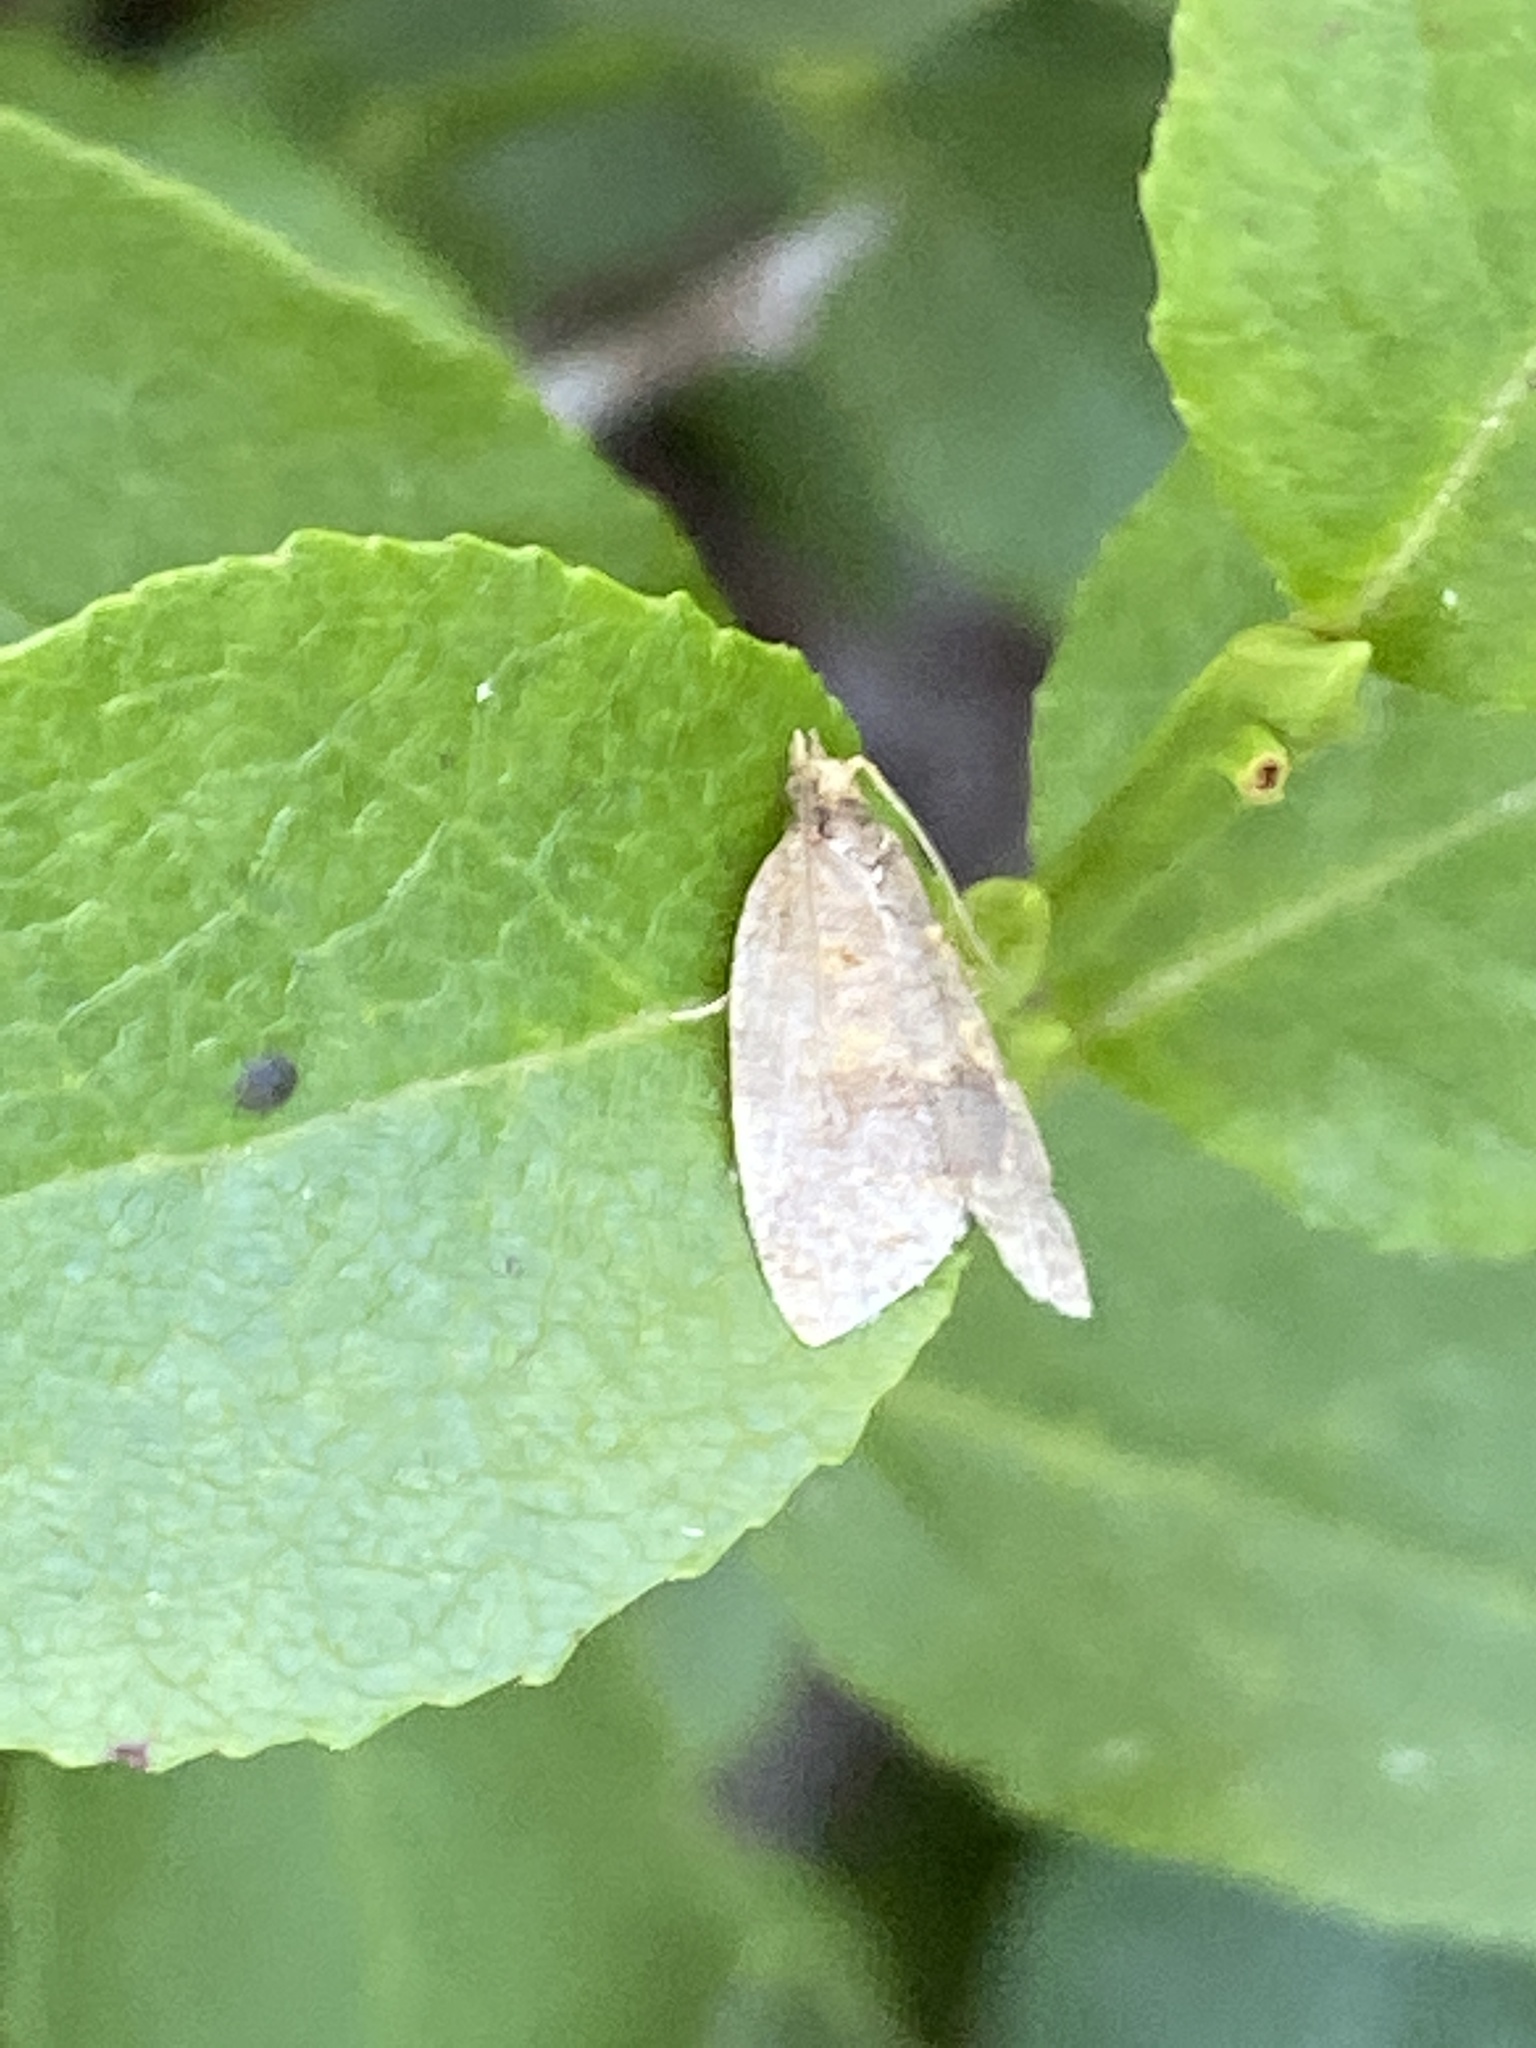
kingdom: Animalia
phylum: Arthropoda
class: Insecta
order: Lepidoptera
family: Tortricidae
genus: Epagoge
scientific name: Epagoge grotiana
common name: Brown-barred twist
